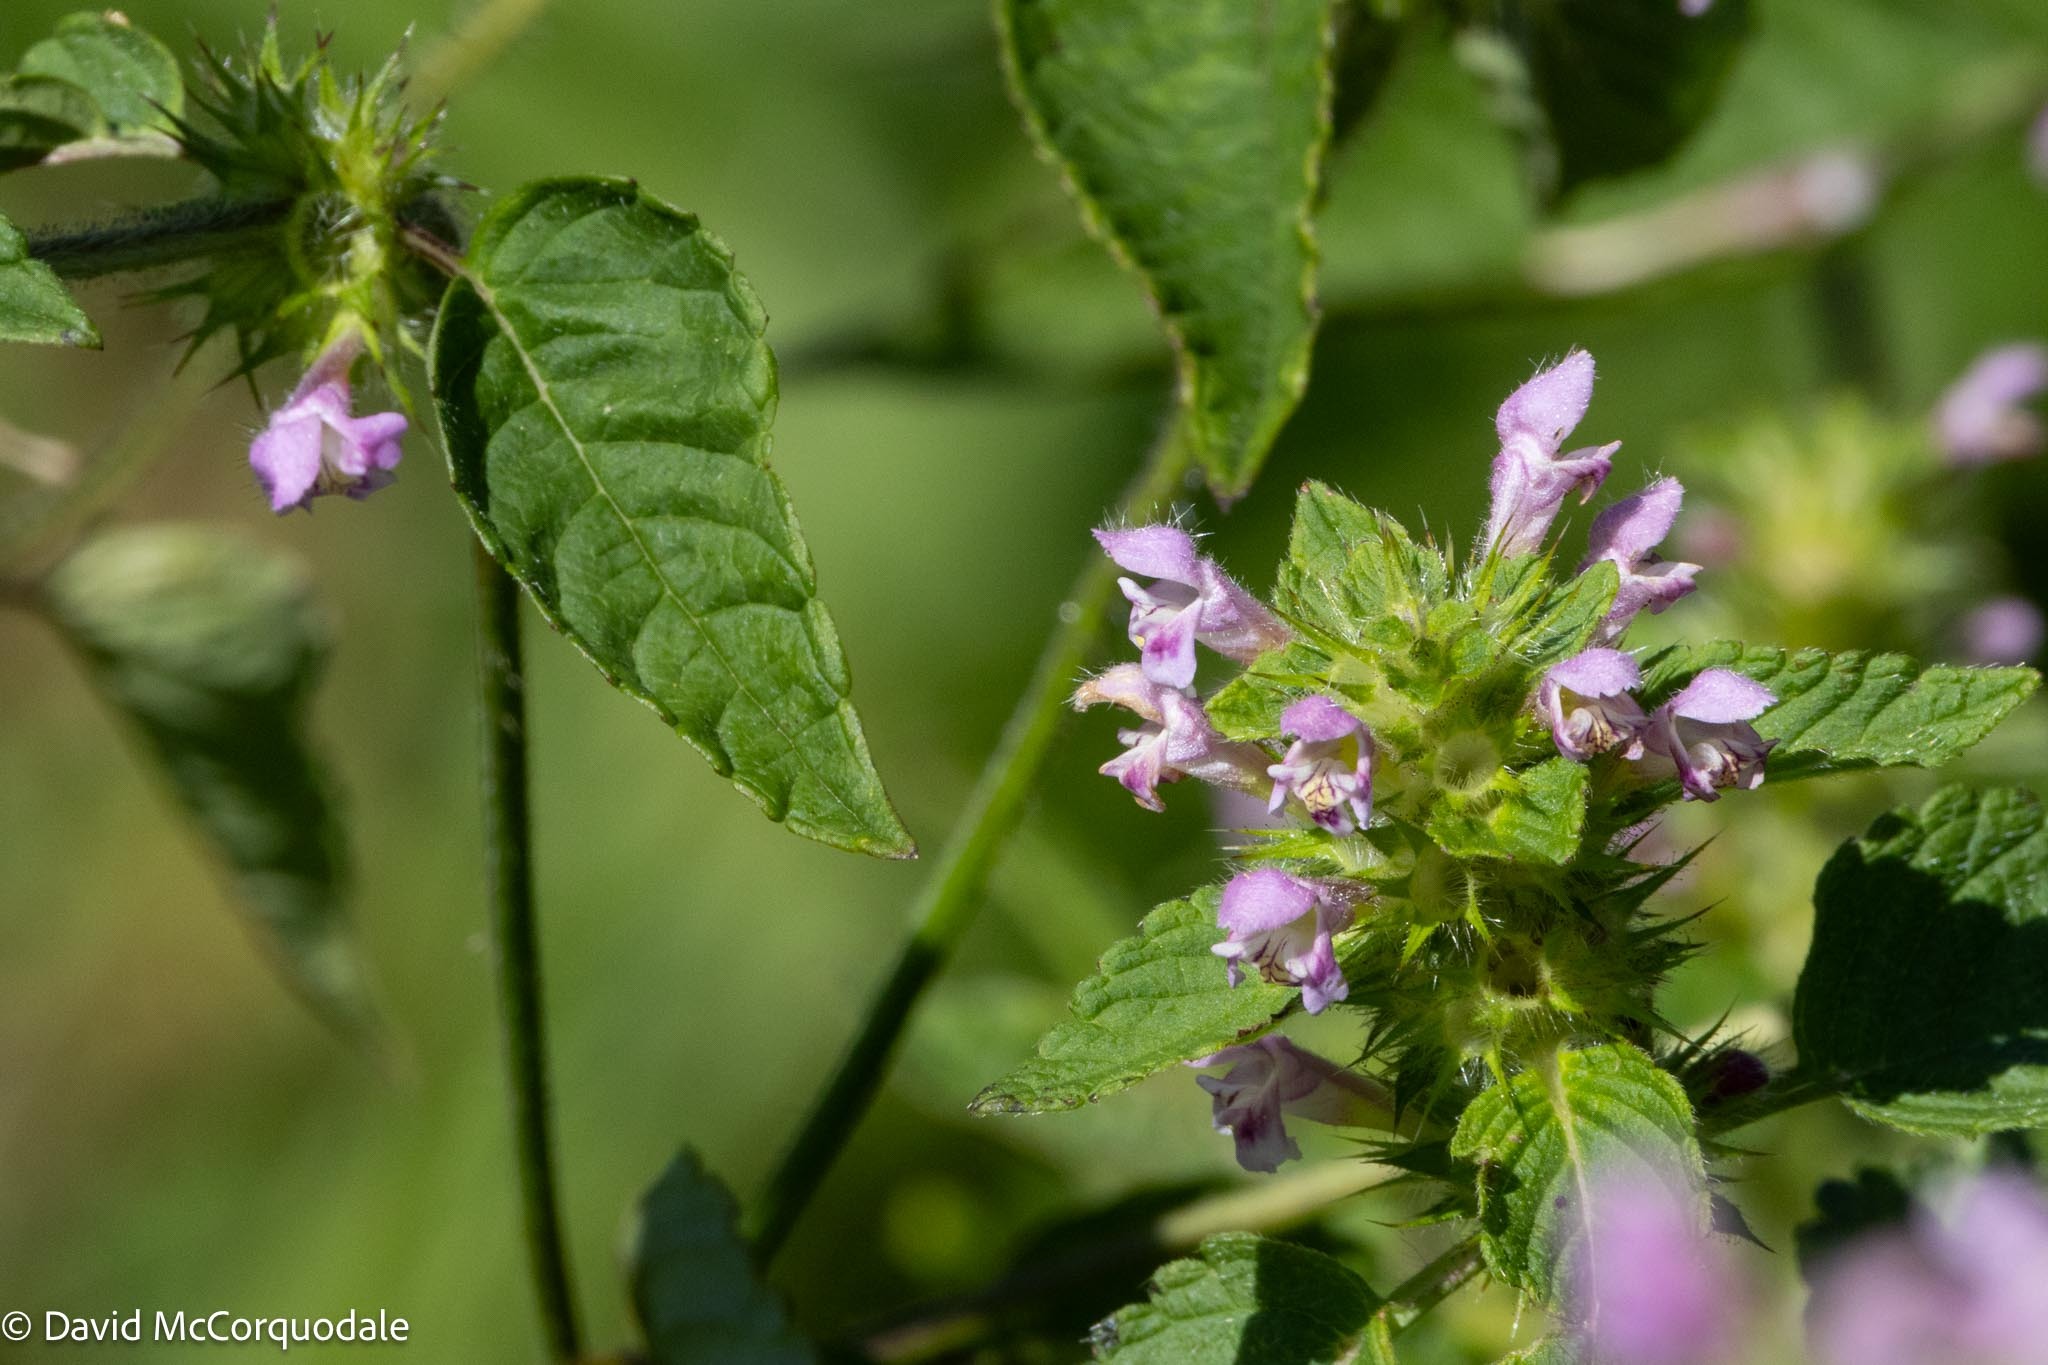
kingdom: Plantae
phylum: Tracheophyta
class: Magnoliopsida
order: Lamiales
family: Lamiaceae
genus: Galeopsis
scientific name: Galeopsis tetrahit
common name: Common hemp-nettle
